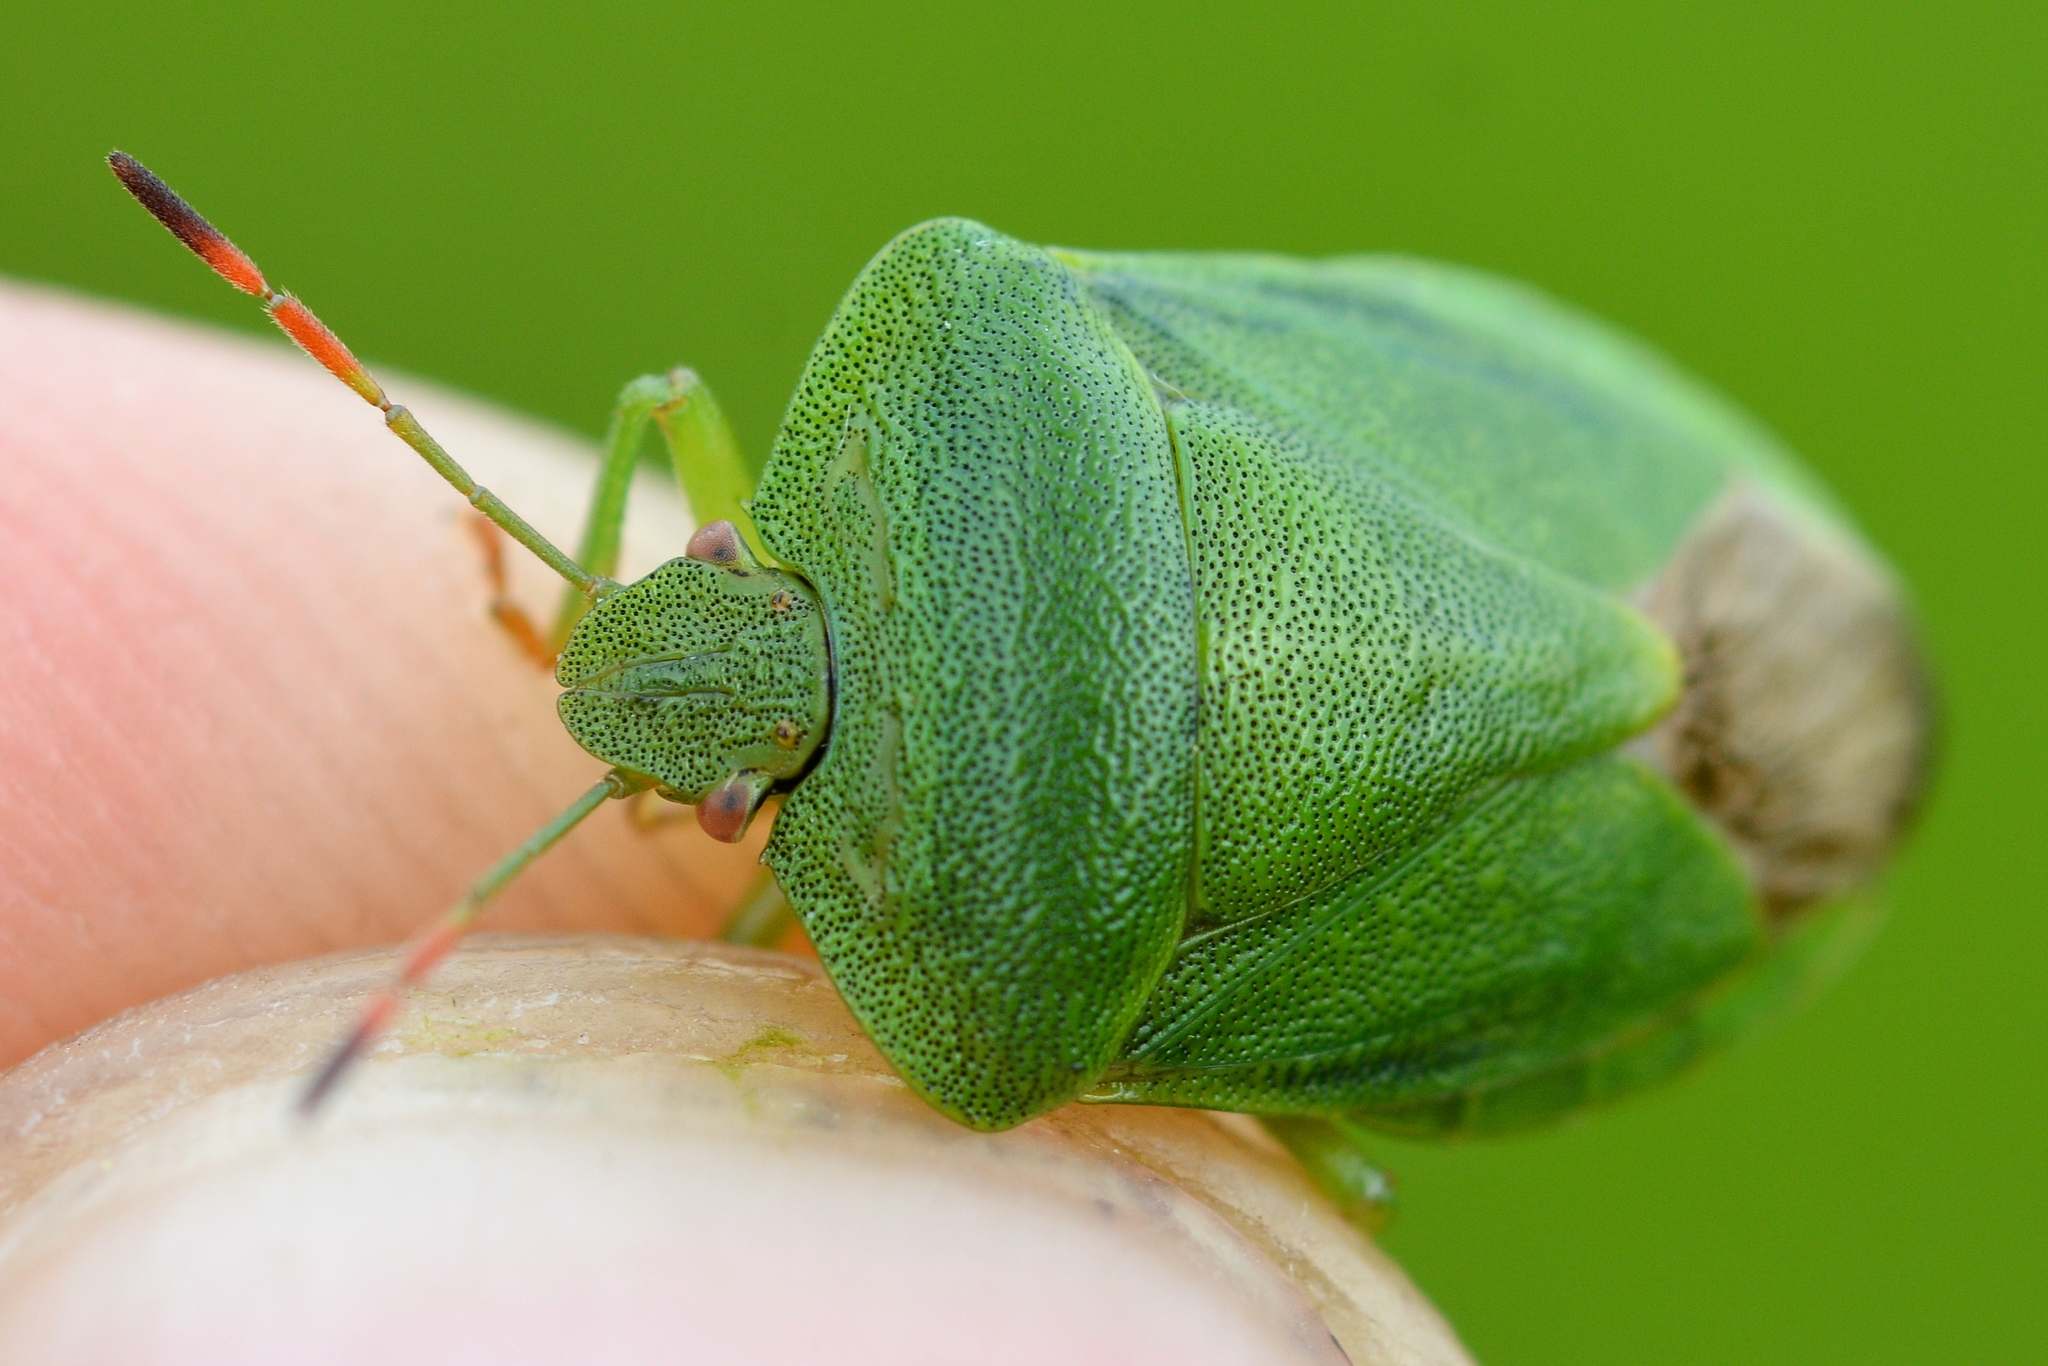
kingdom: Animalia
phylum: Arthropoda
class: Insecta
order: Hemiptera
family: Pentatomidae
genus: Palomena
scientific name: Palomena viridissima
